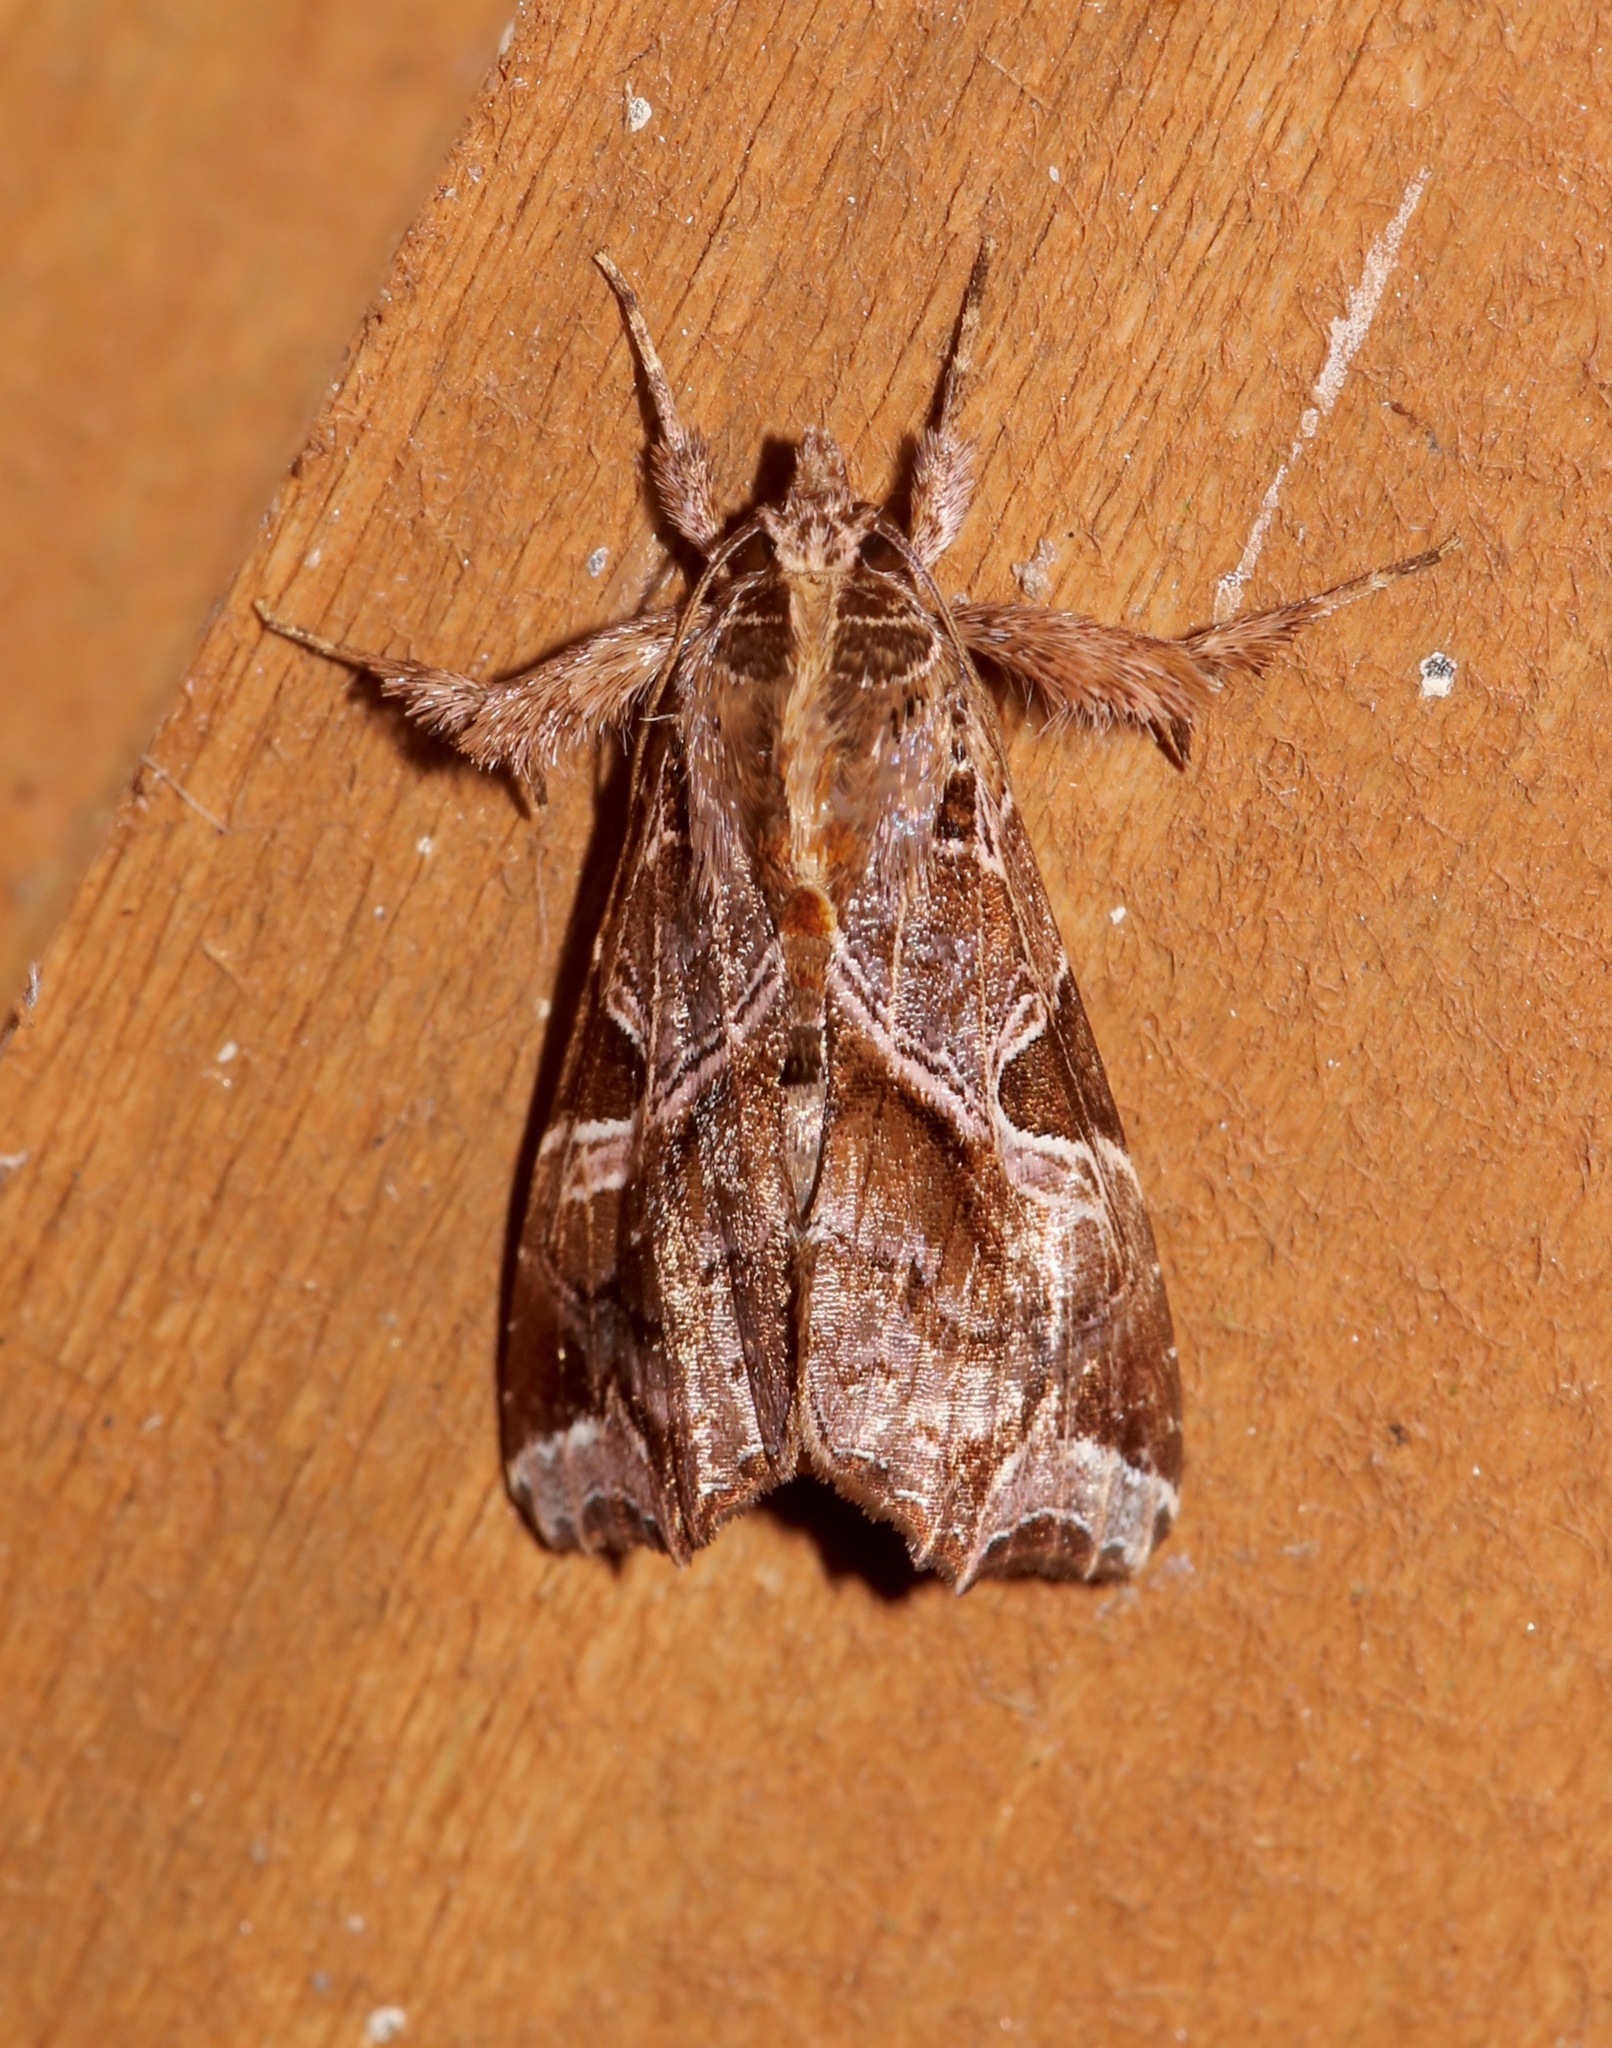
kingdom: Animalia
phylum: Arthropoda
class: Insecta
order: Lepidoptera
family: Noctuidae
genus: Callopistria
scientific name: Callopistria floridensis
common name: Florida fern moth
